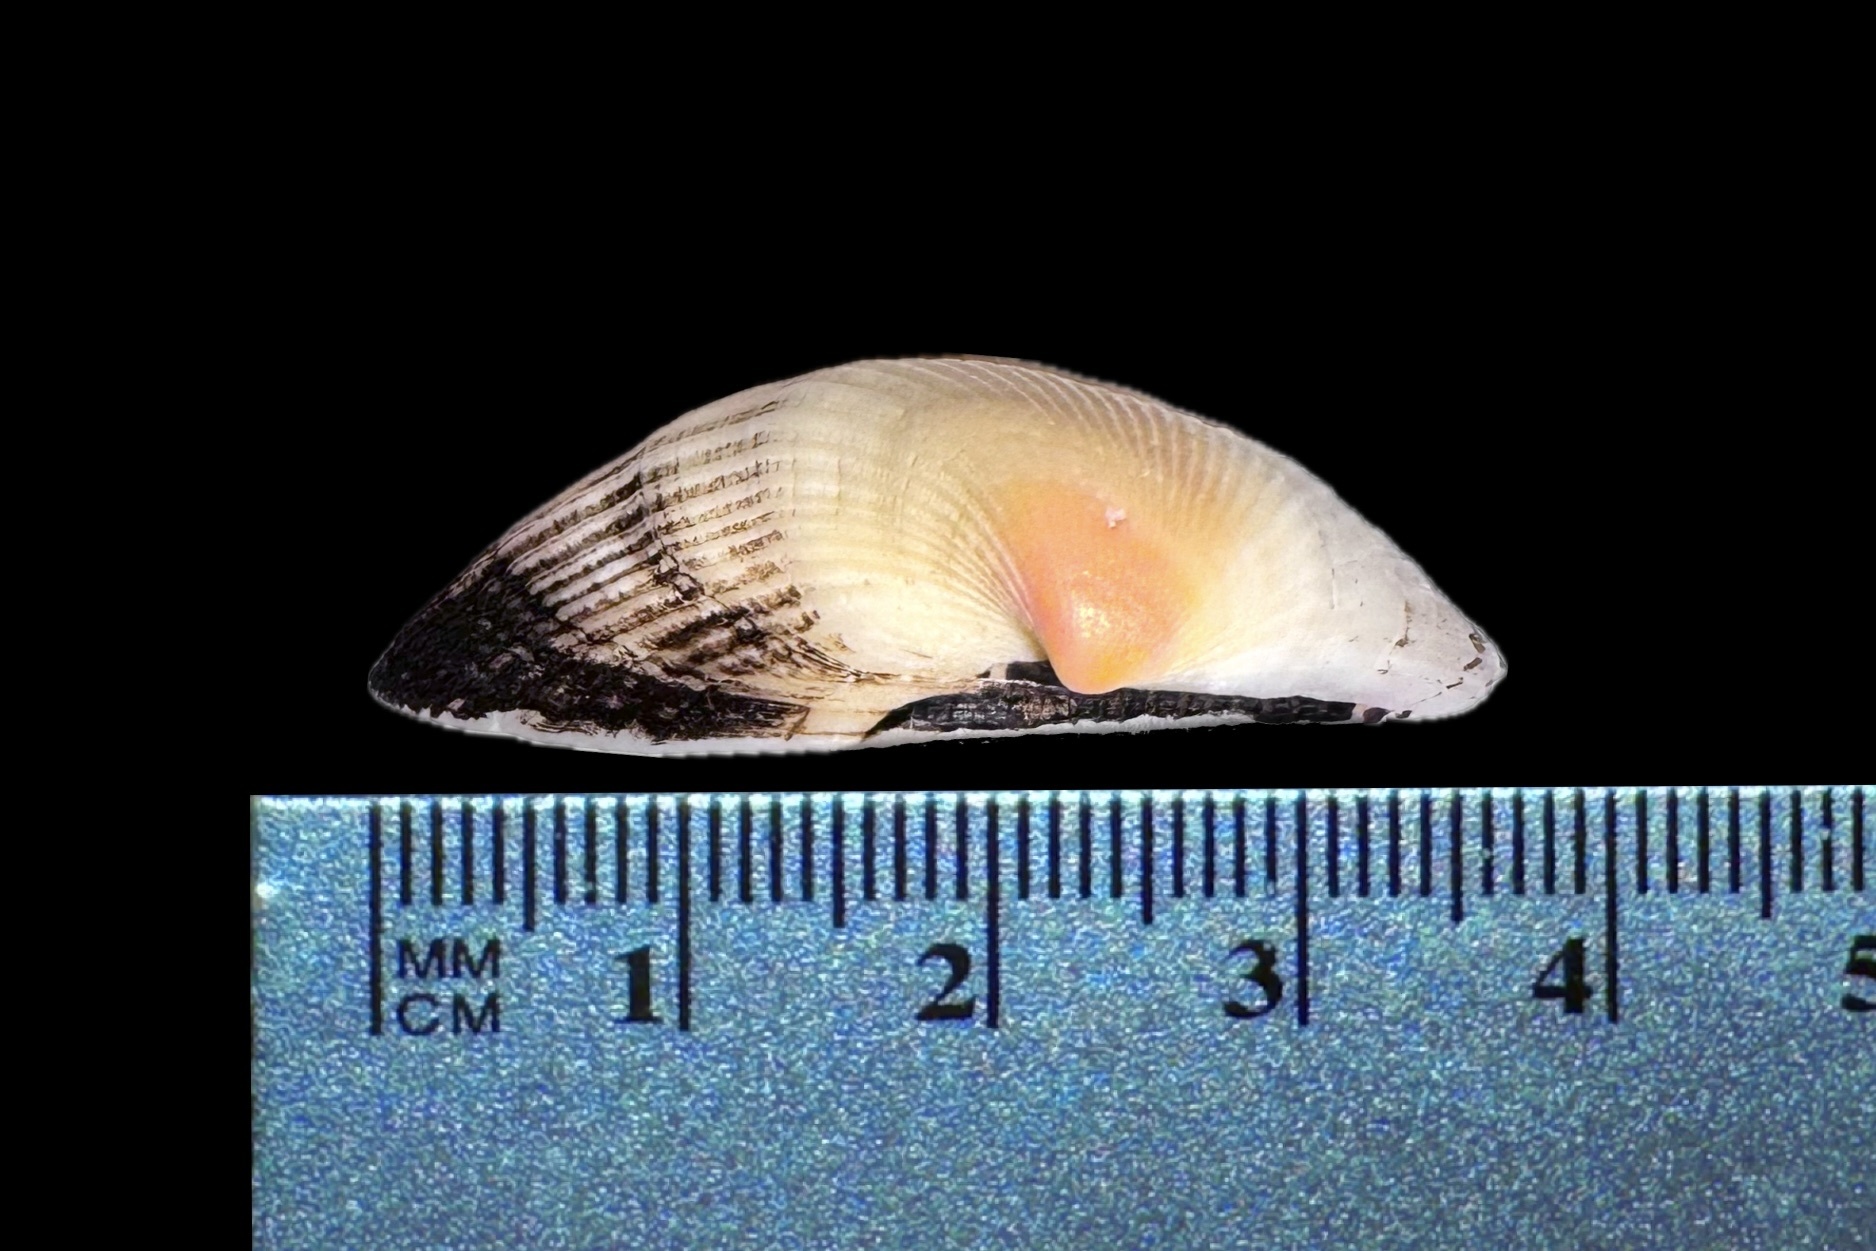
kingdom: Animalia
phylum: Mollusca
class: Bivalvia
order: Arcida
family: Noetiidae
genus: Noetia
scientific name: Noetia ponderosa
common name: Ponderous ark
